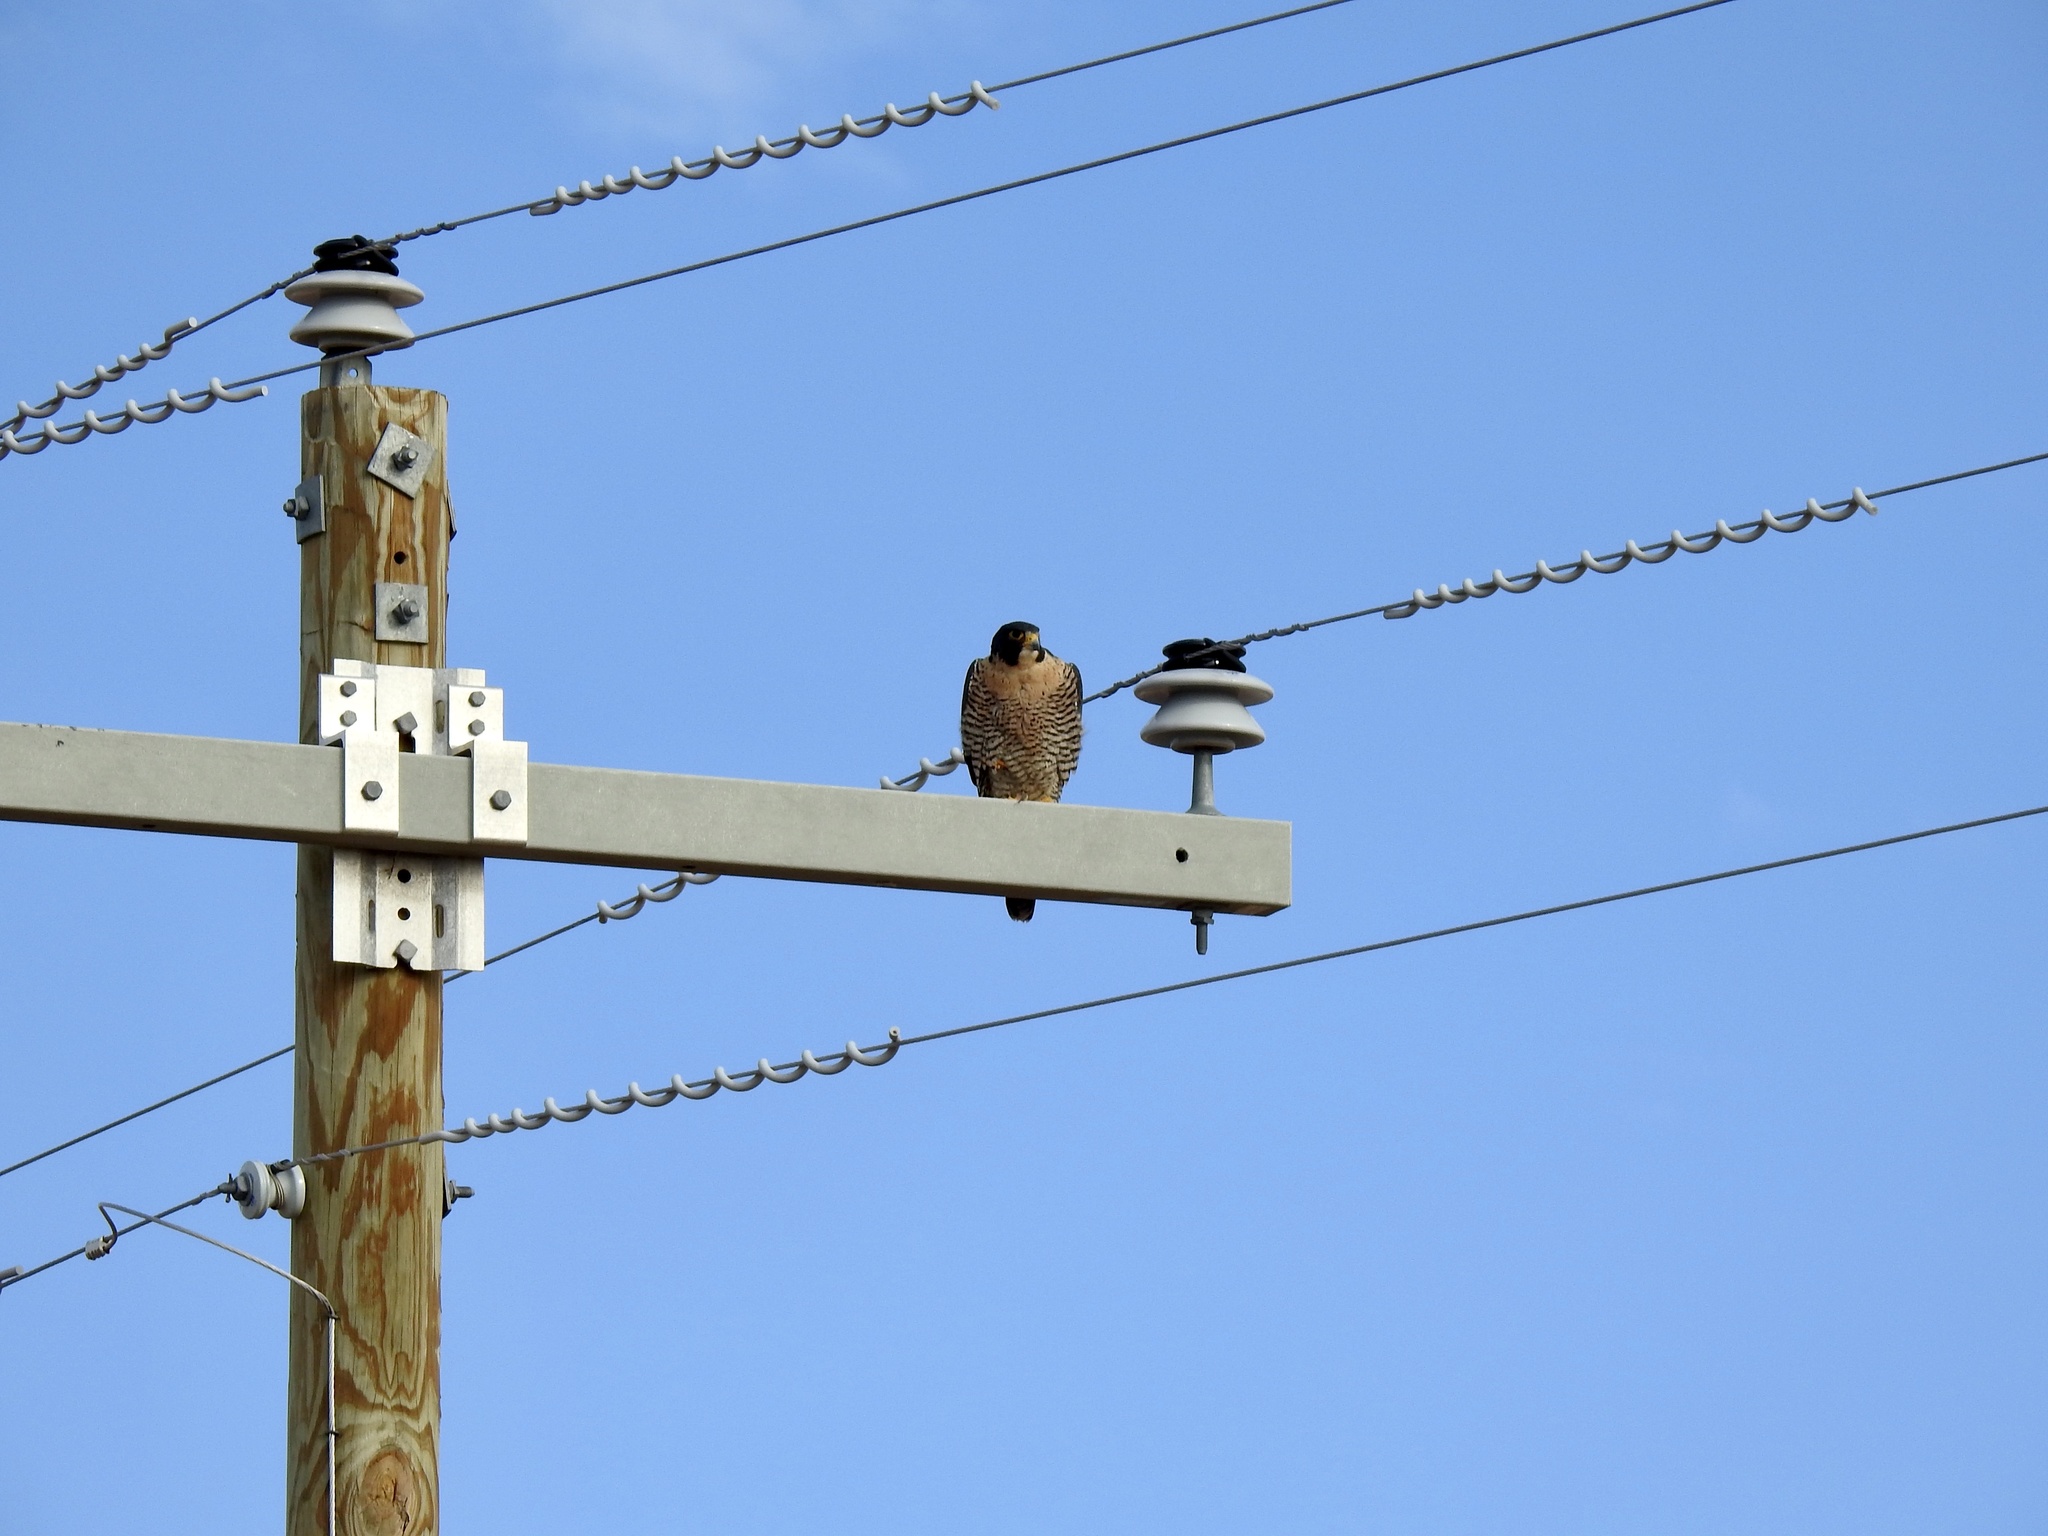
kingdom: Animalia
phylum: Chordata
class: Aves
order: Falconiformes
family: Falconidae
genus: Falco
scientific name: Falco peregrinus
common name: Peregrine falcon
